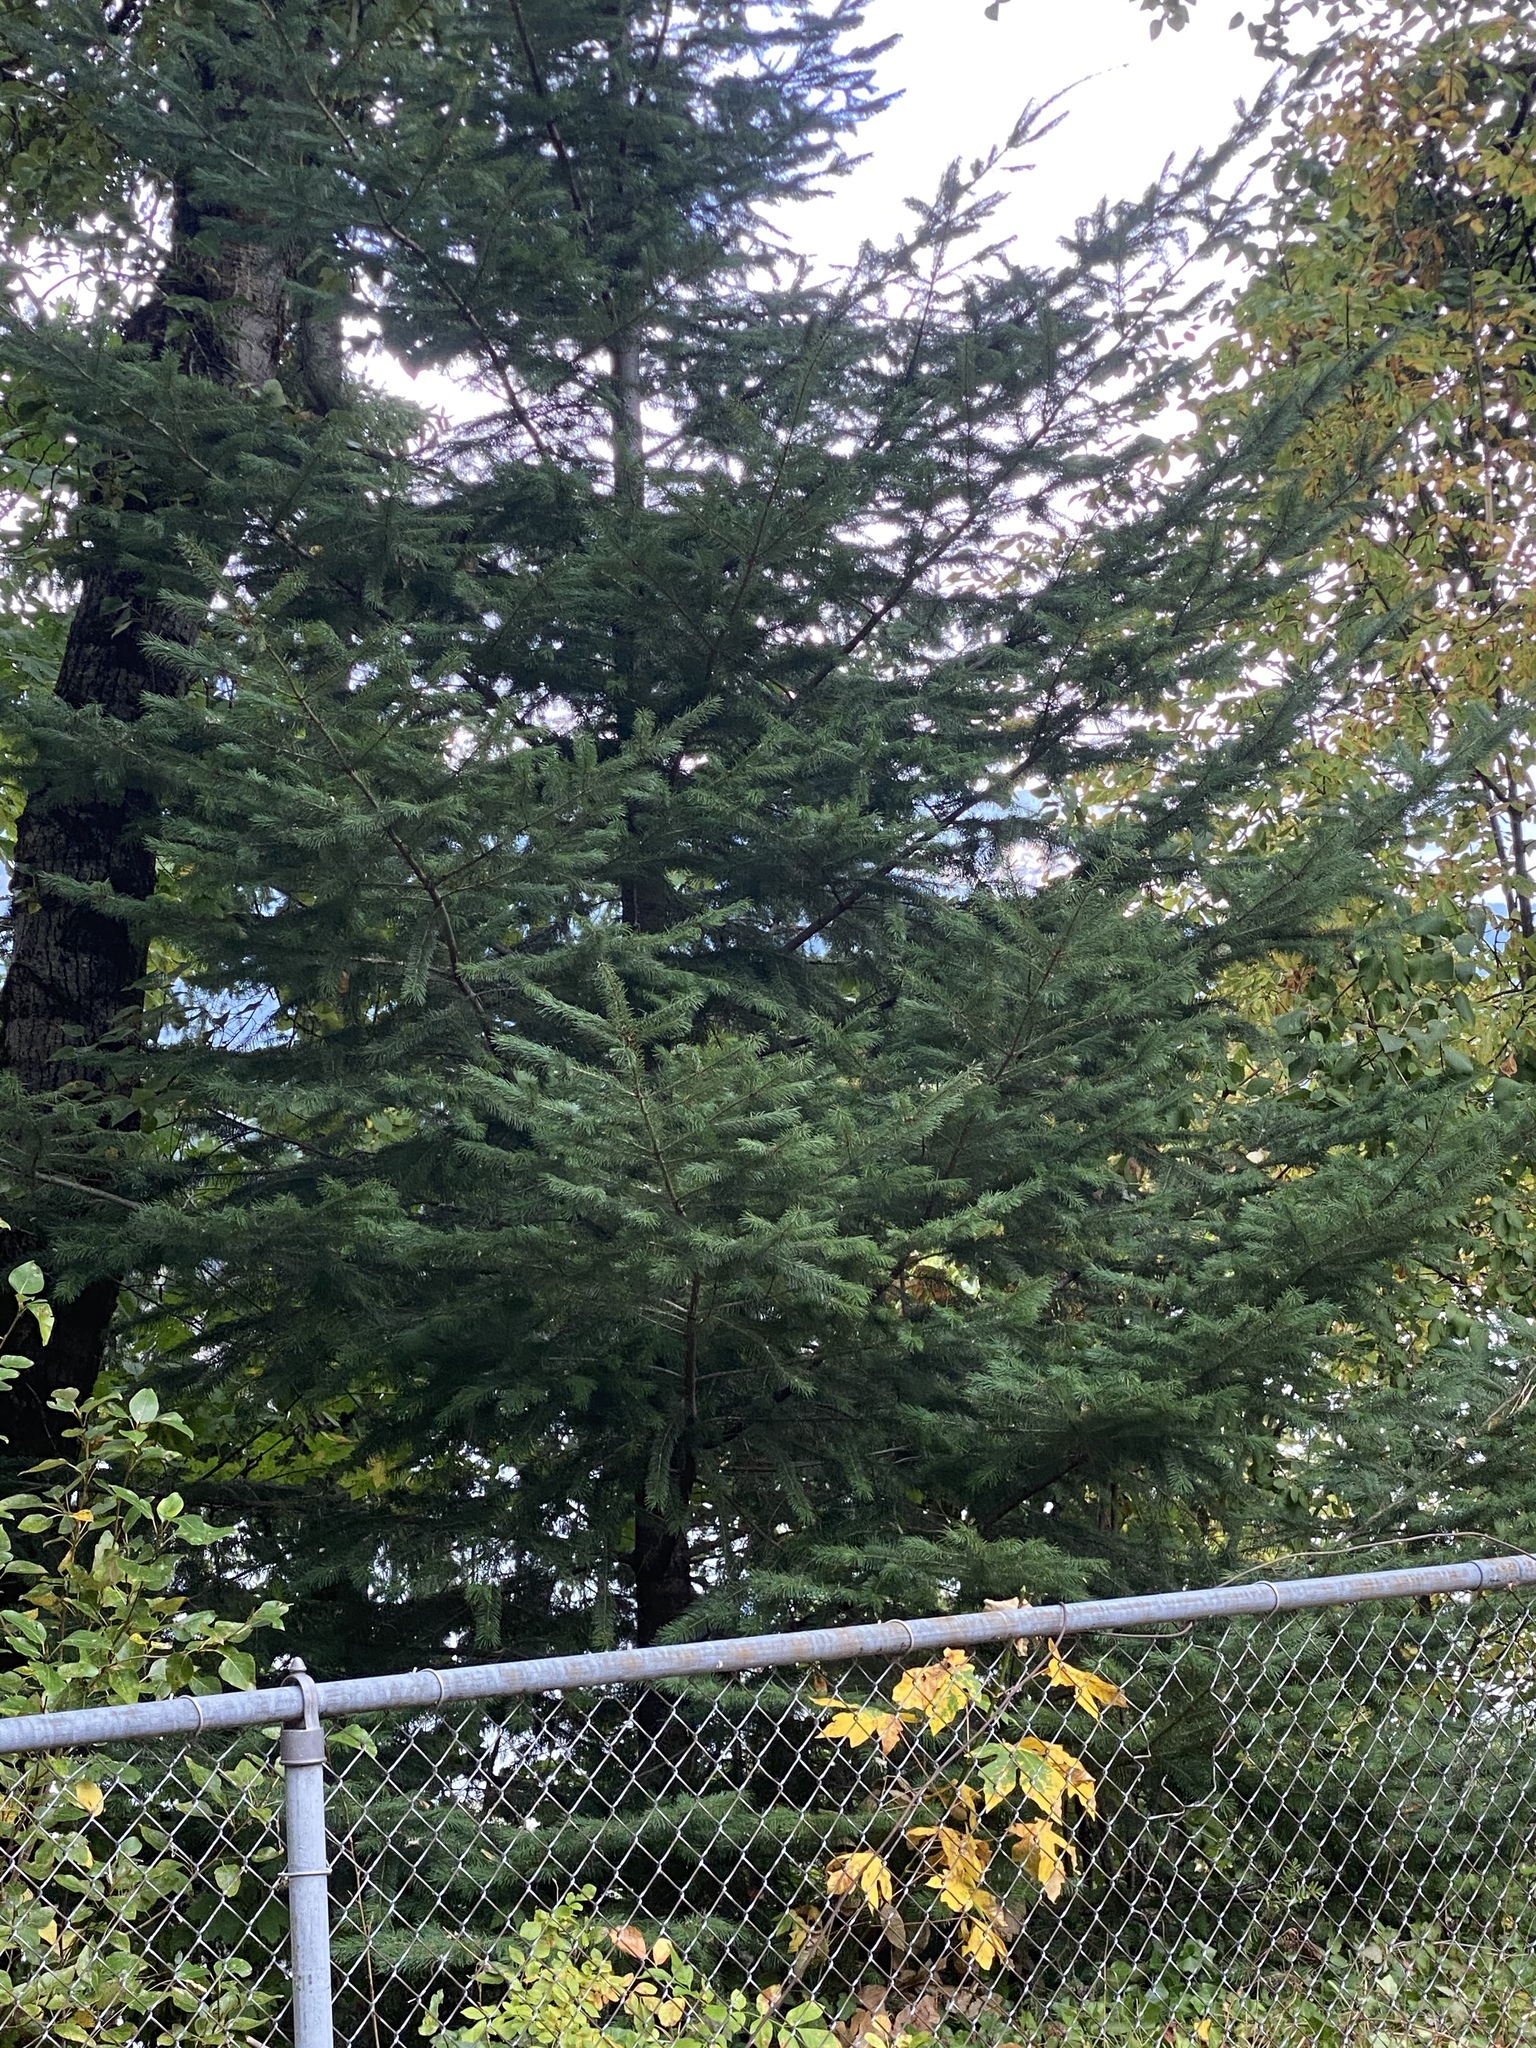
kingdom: Plantae
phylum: Tracheophyta
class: Pinopsida
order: Pinales
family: Pinaceae
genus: Pseudotsuga
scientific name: Pseudotsuga menziesii
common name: Douglas fir
